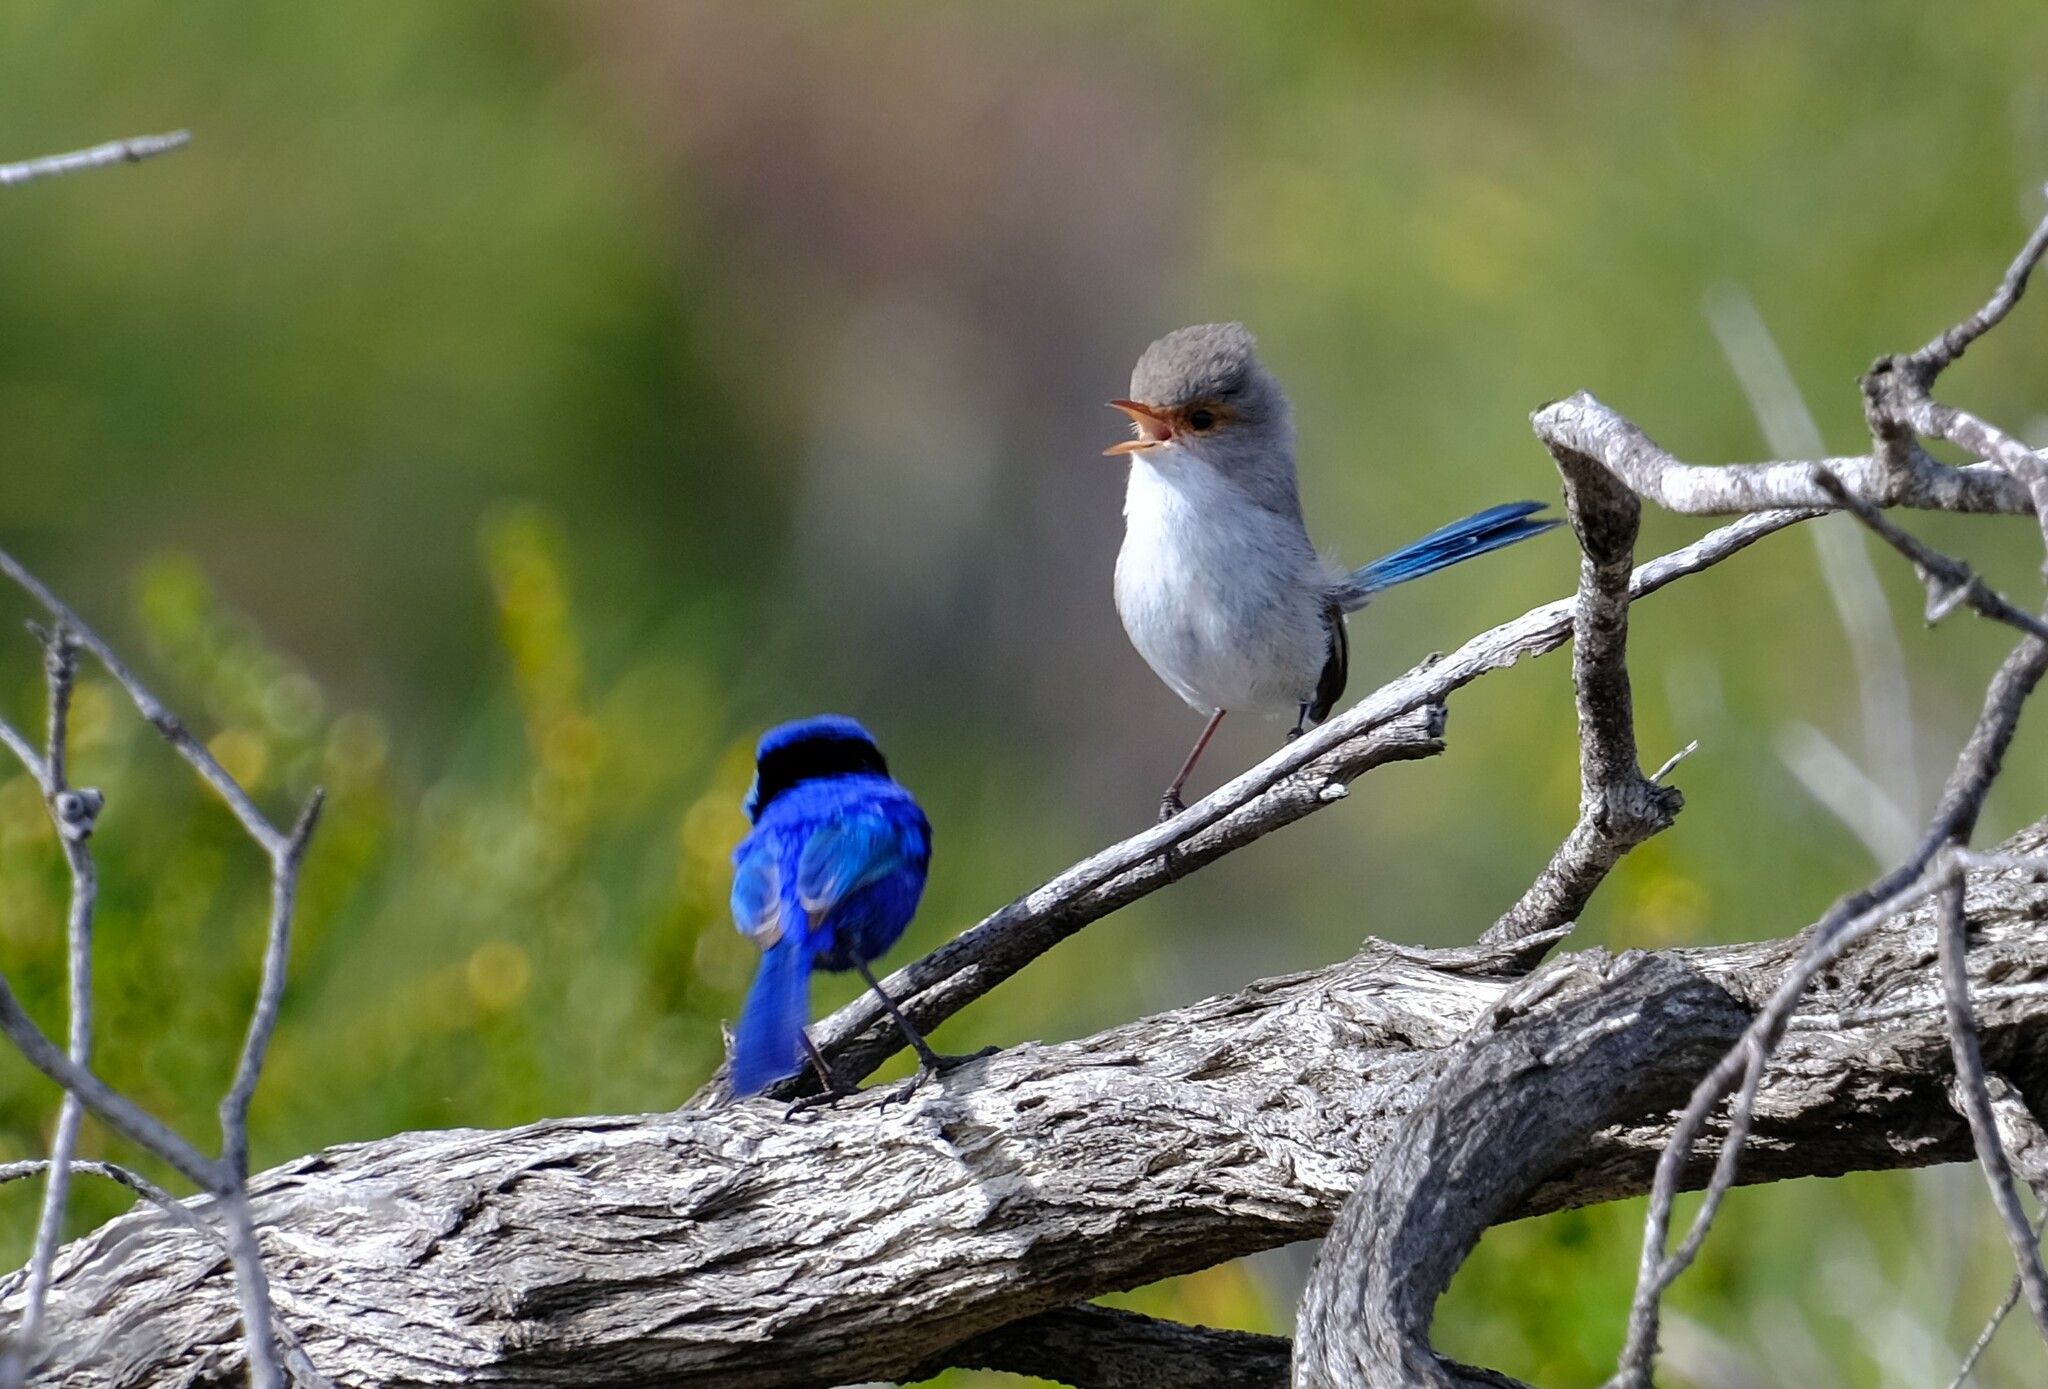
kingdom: Animalia
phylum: Chordata
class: Aves
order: Passeriformes
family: Maluridae
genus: Malurus
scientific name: Malurus splendens
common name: Splendid fairywren
